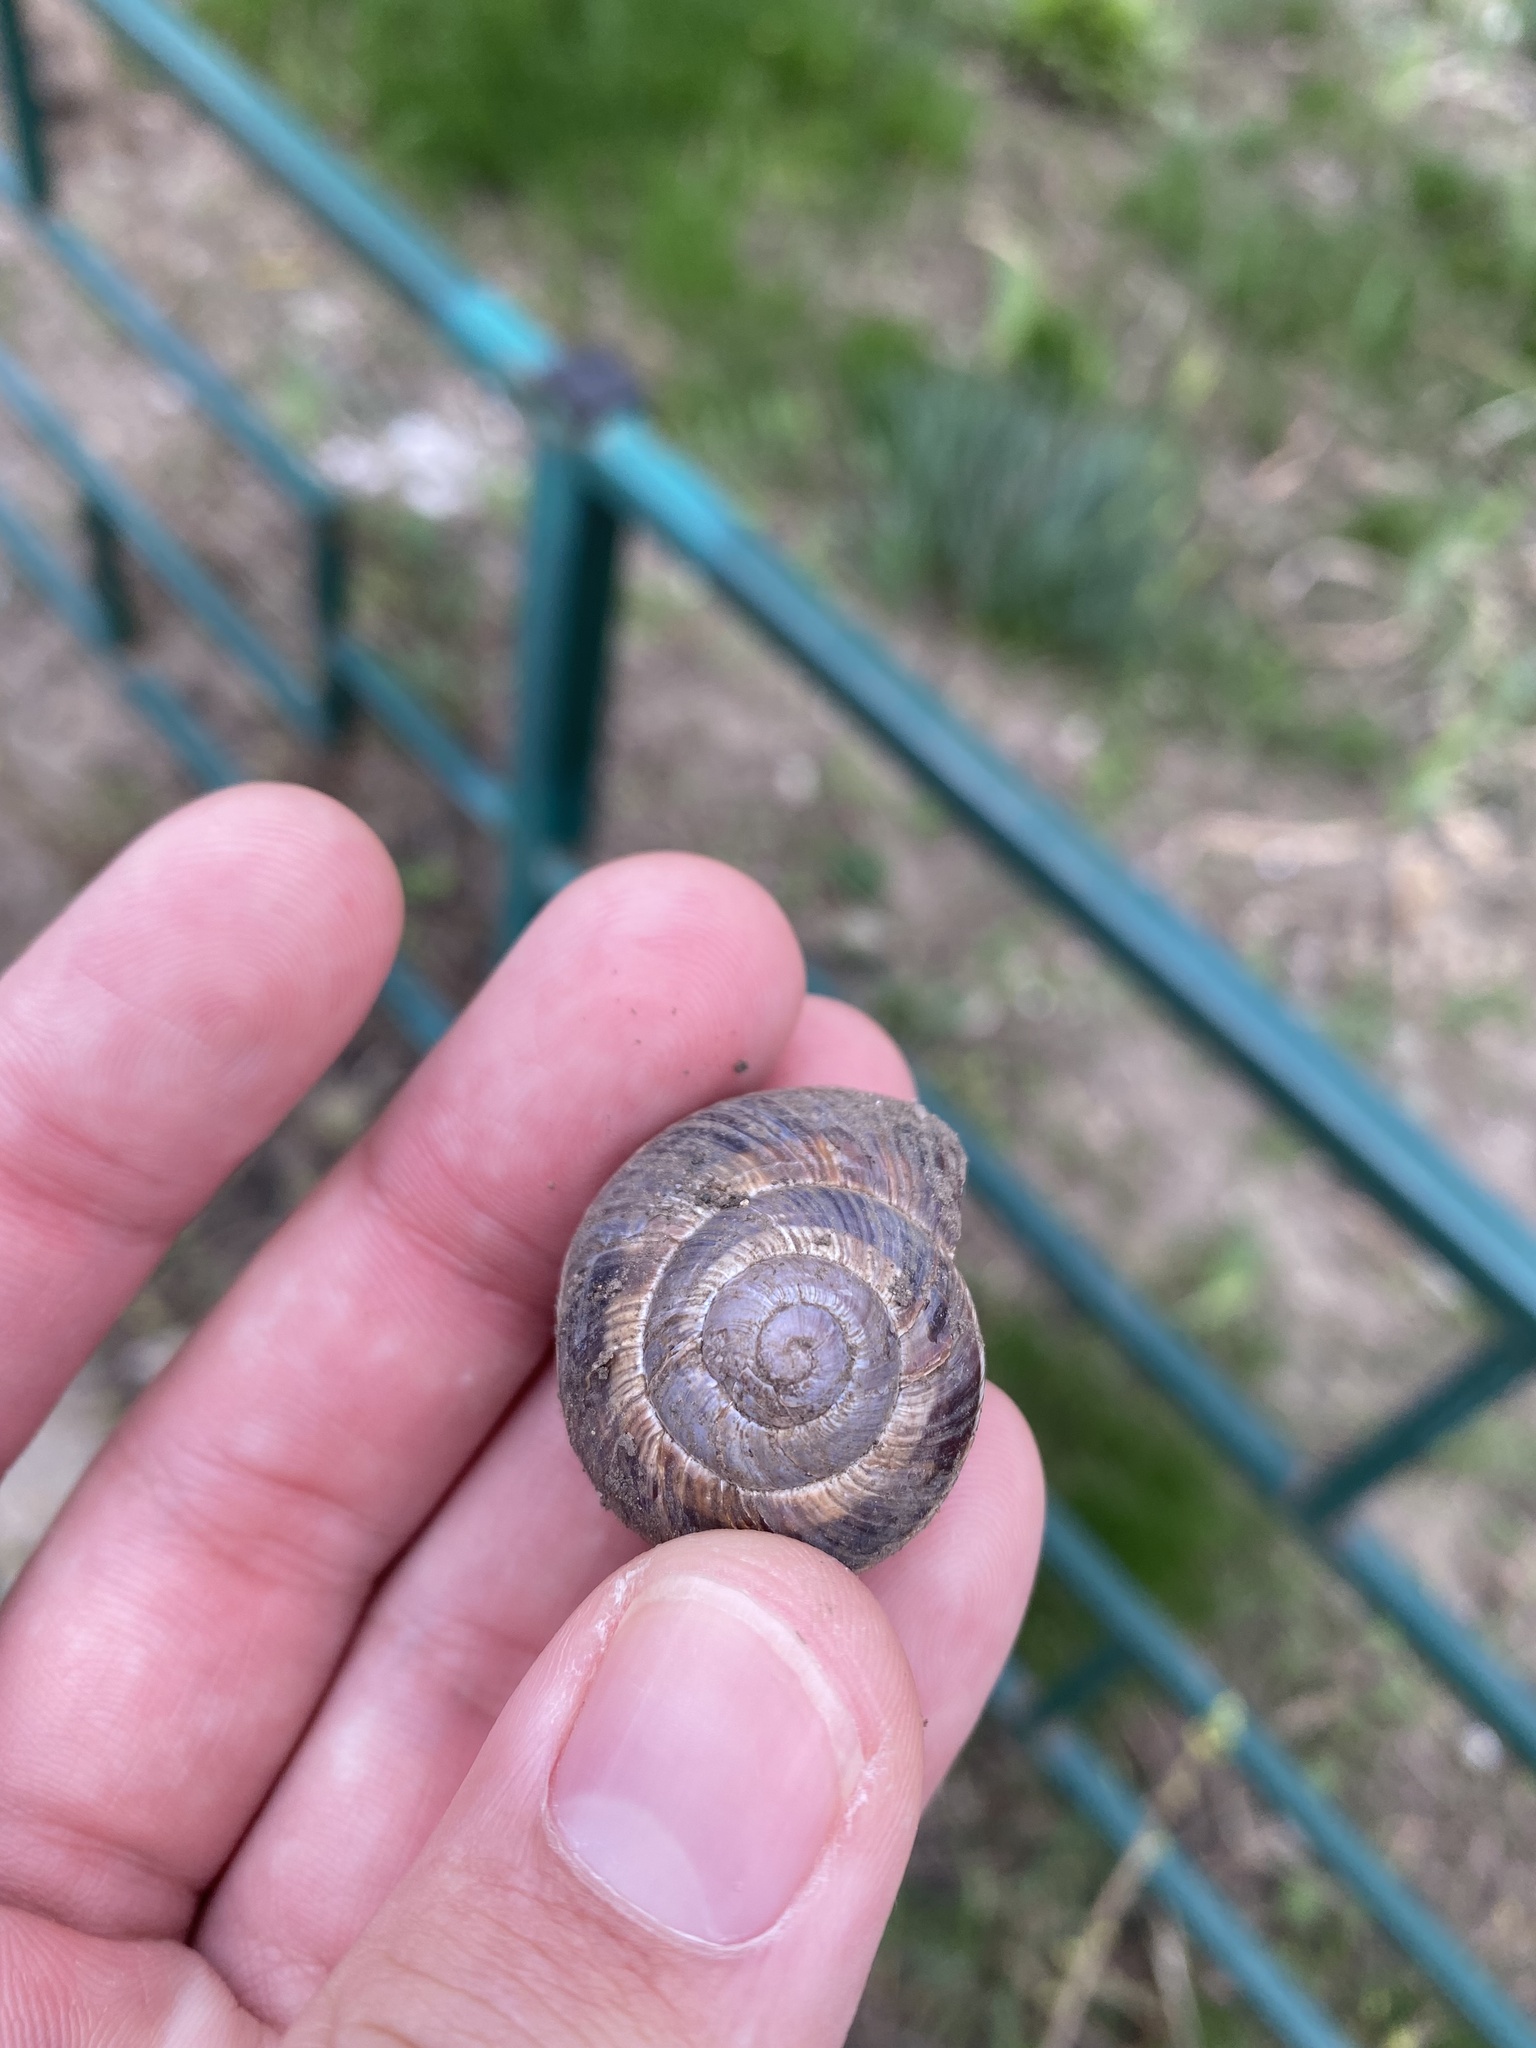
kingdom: Animalia
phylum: Mollusca
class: Gastropoda
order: Stylommatophora
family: Helicidae
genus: Helix
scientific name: Helix lucorum
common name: Turkish snail
